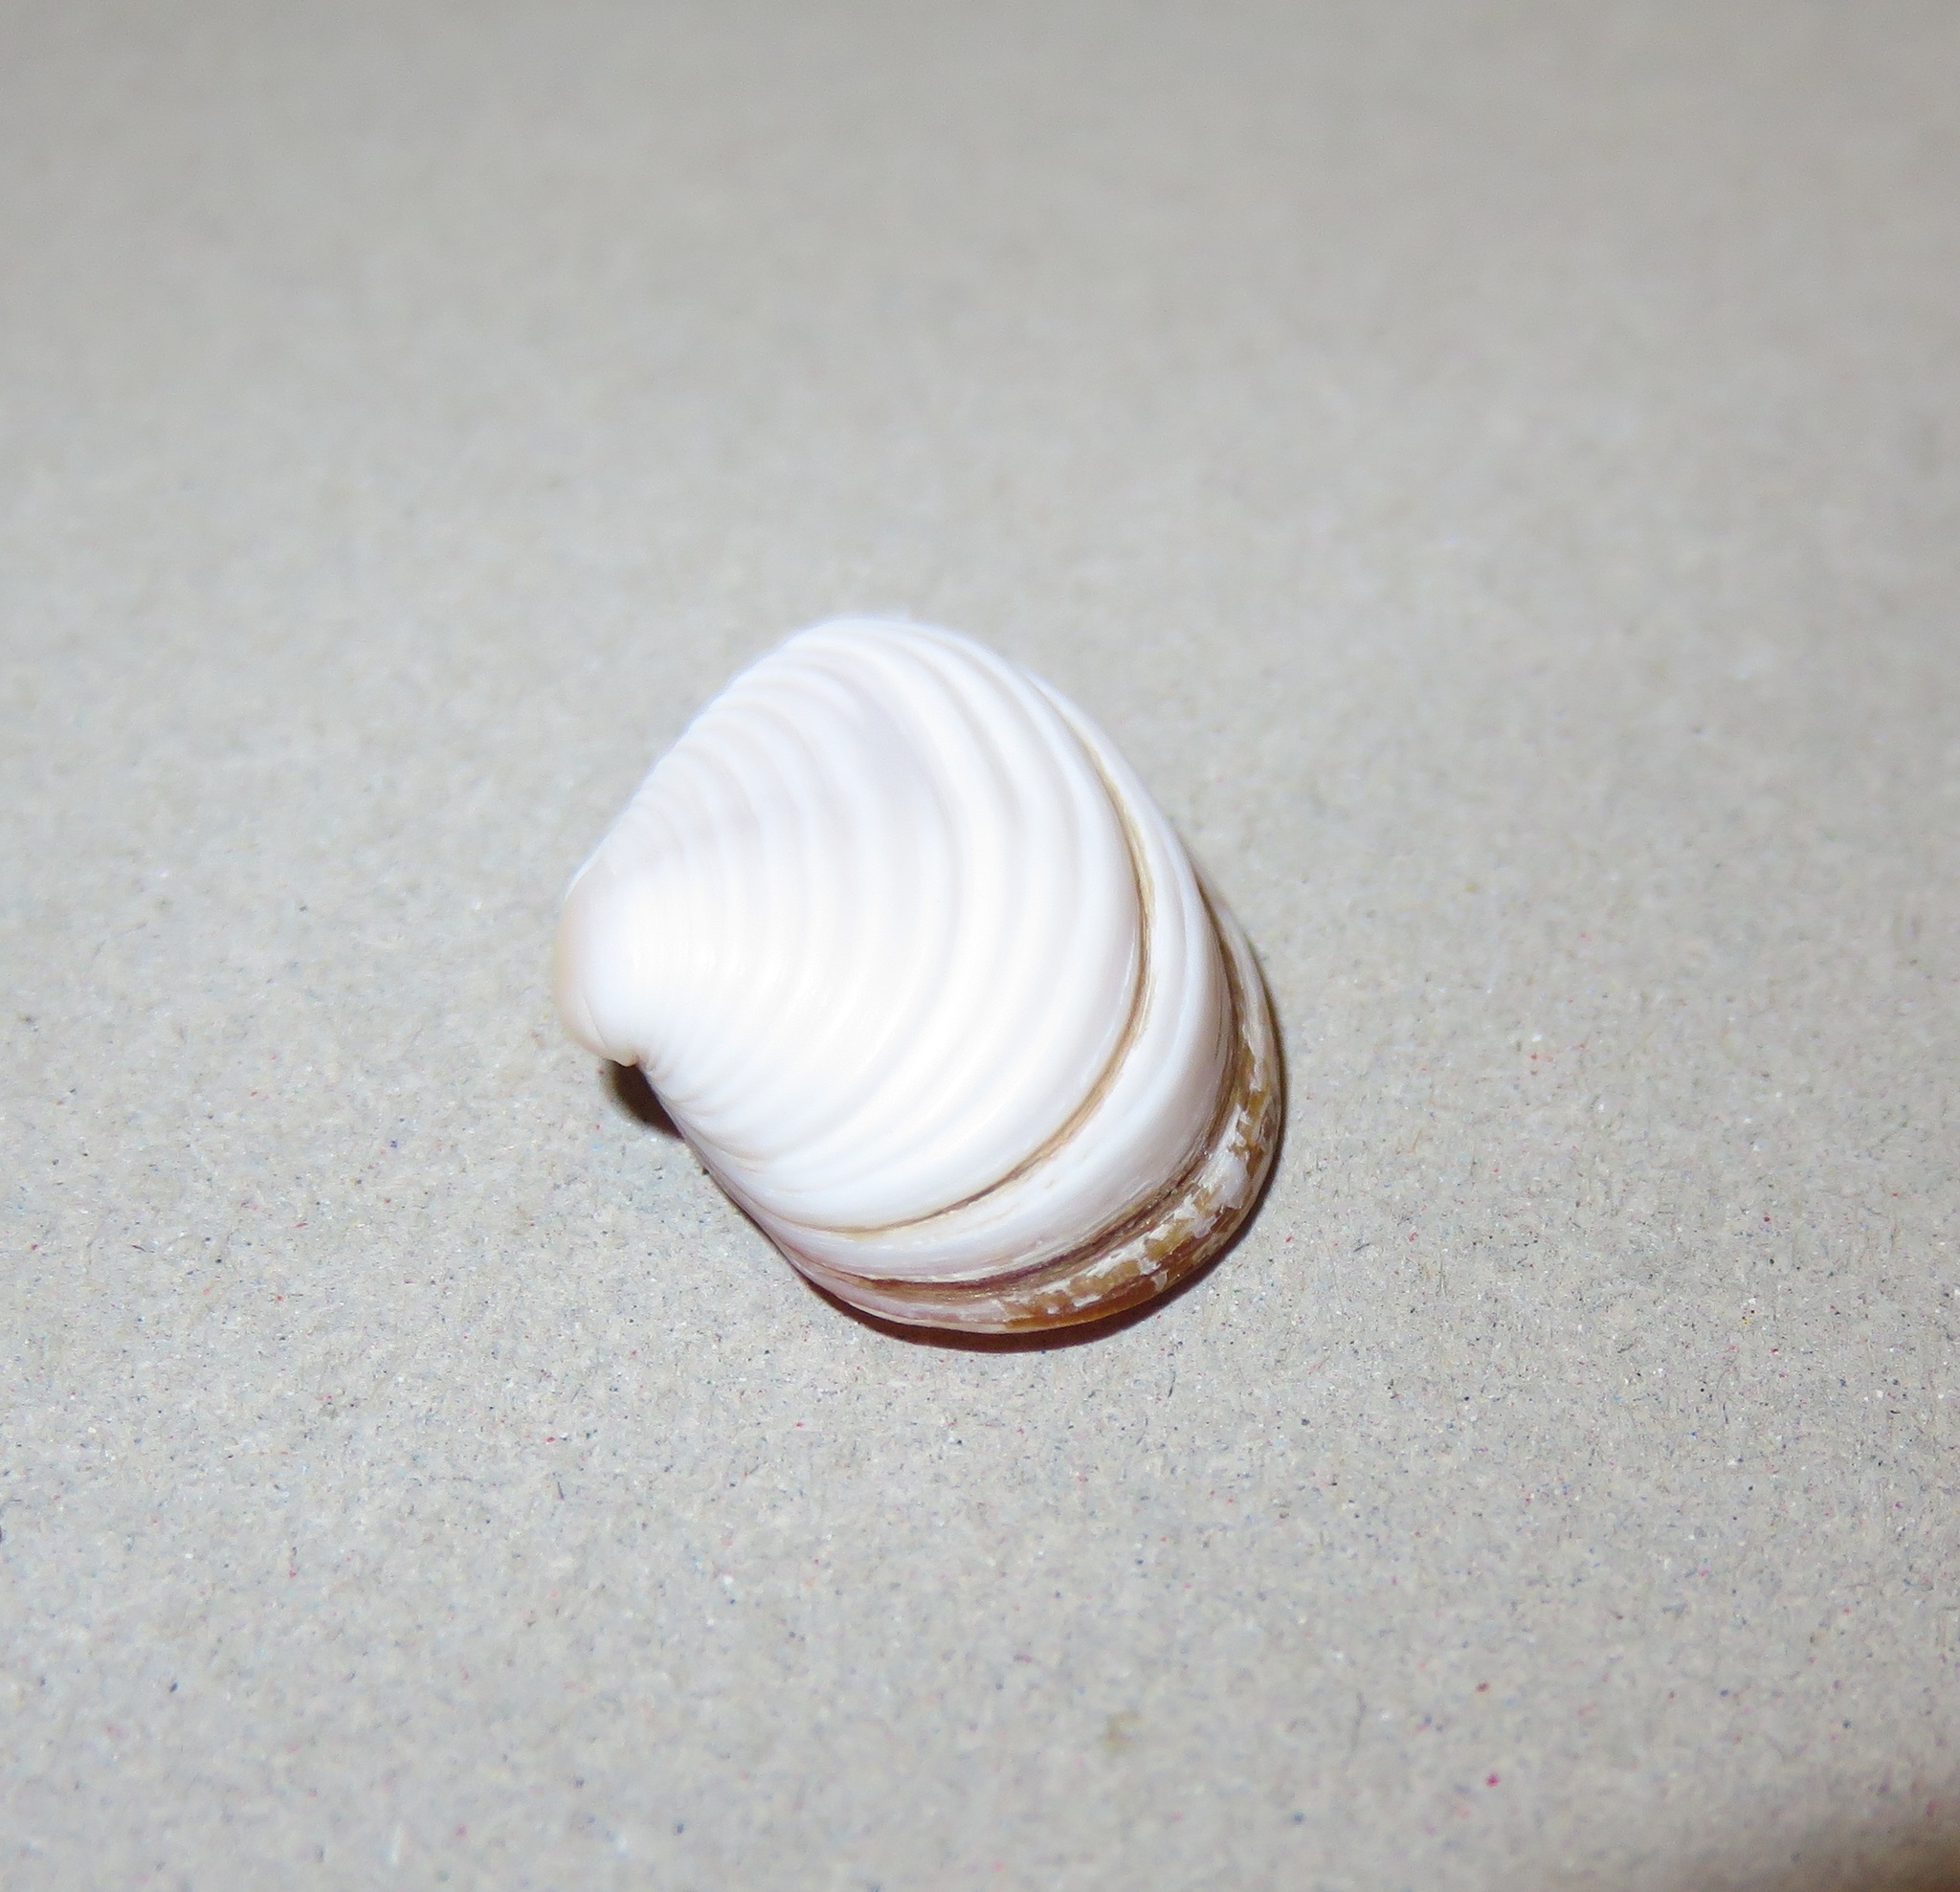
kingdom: Animalia
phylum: Mollusca
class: Bivalvia
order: Myida
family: Corbulidae
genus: Corbula
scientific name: Corbula erythrodon
